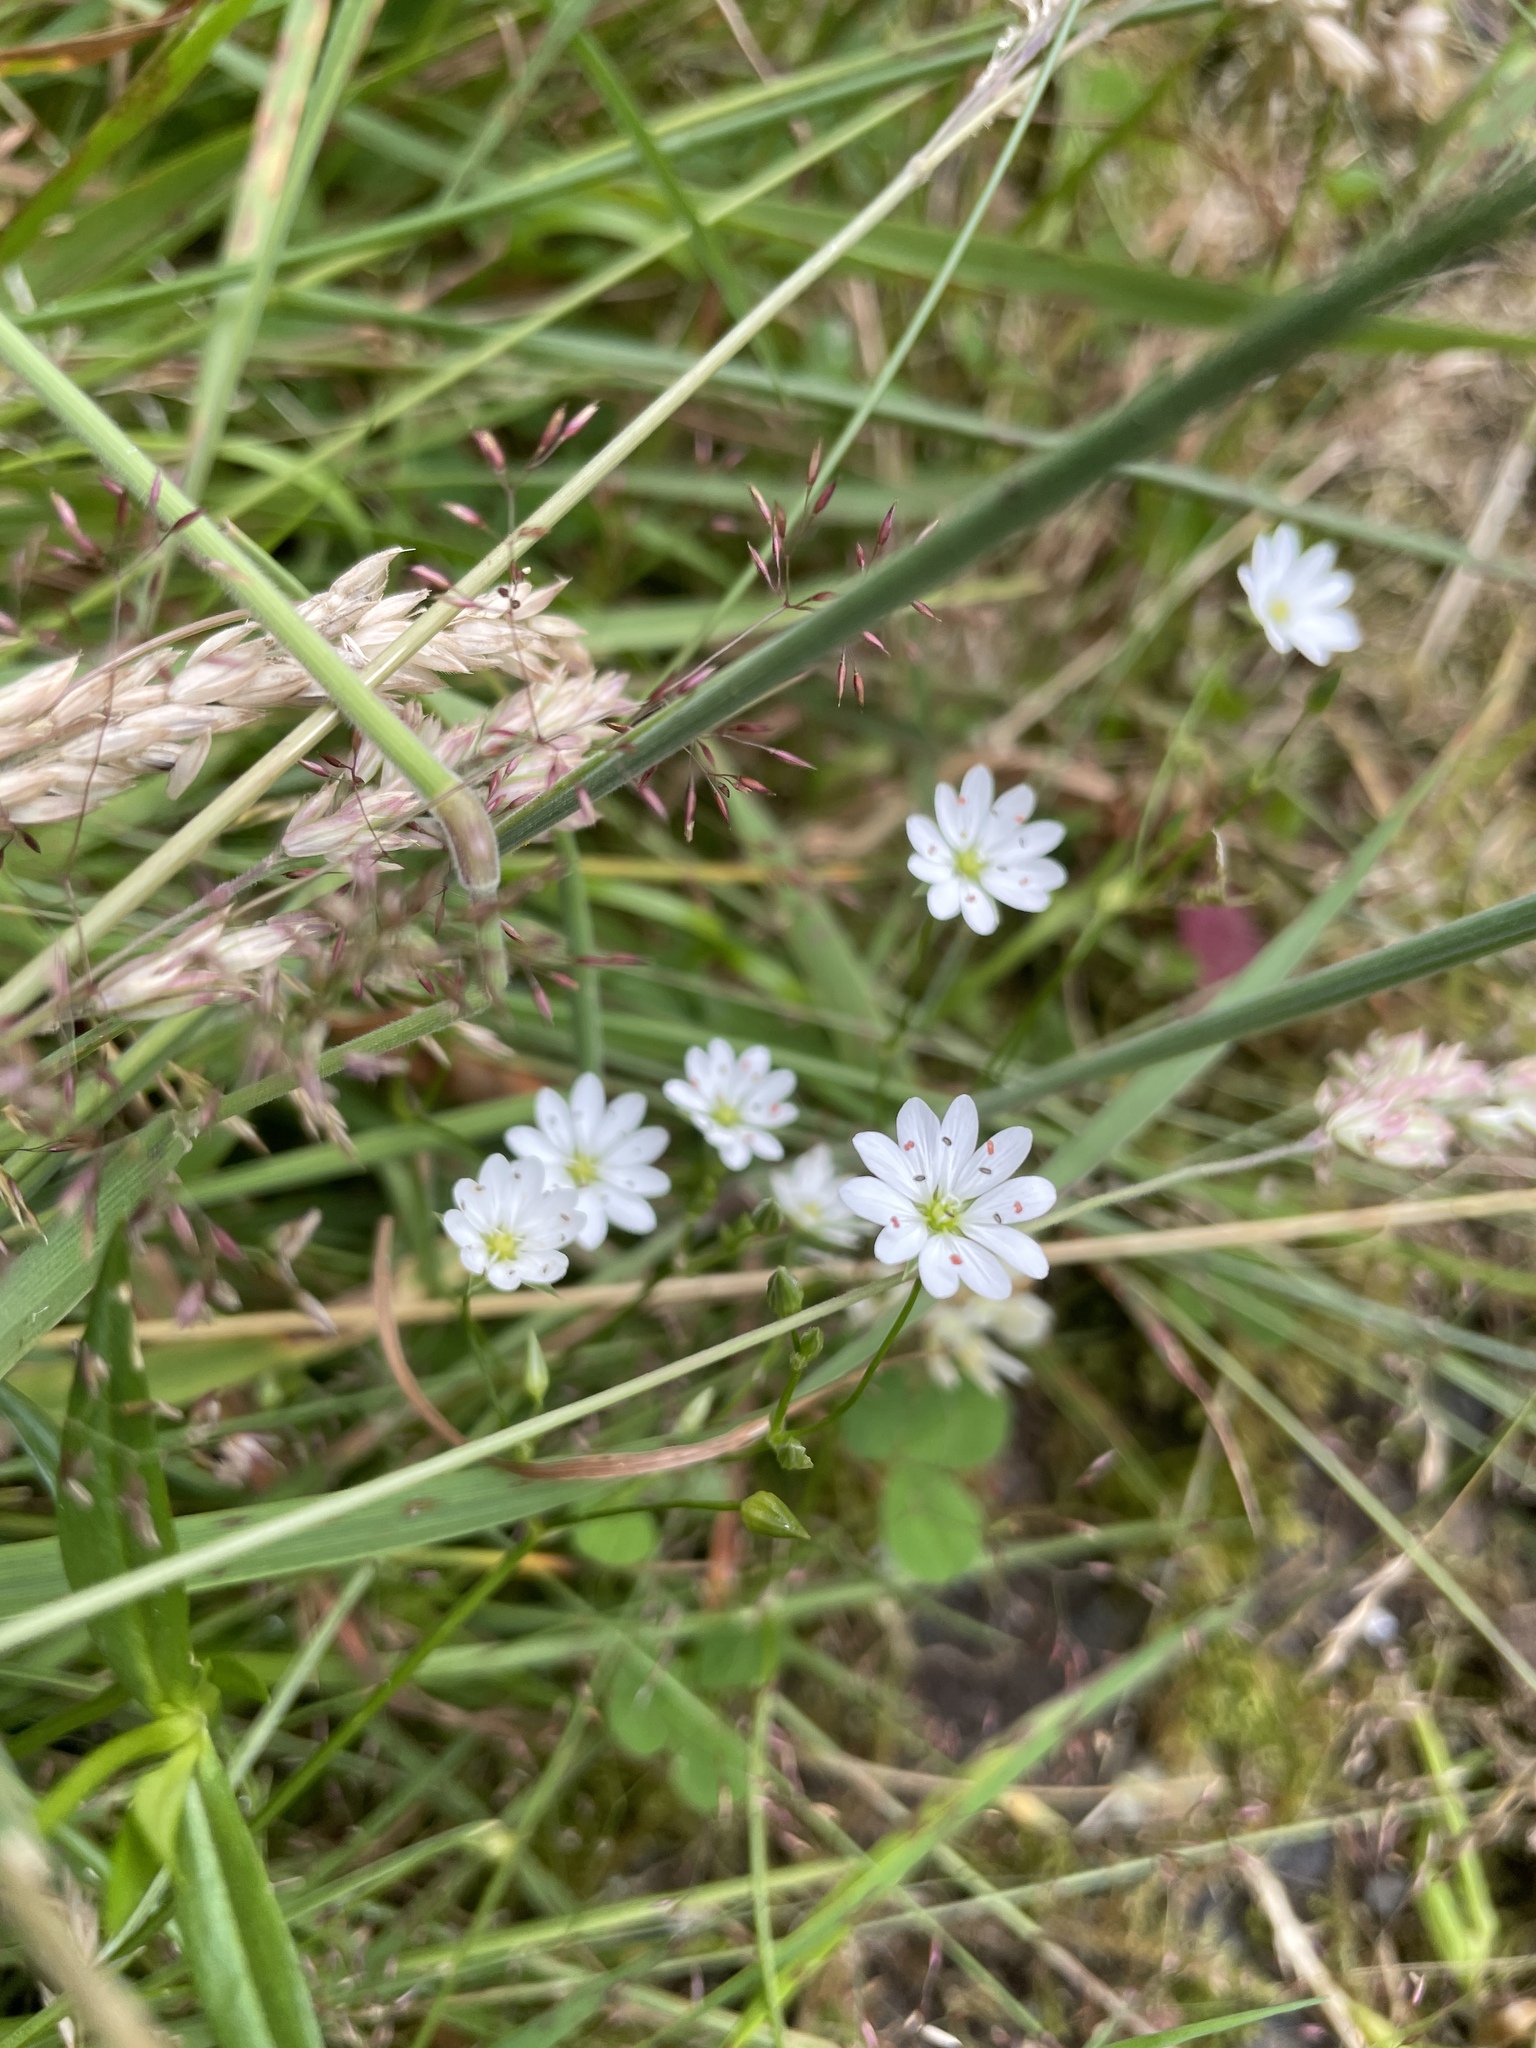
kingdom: Plantae
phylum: Tracheophyta
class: Magnoliopsida
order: Caryophyllales
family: Caryophyllaceae
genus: Stellaria
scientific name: Stellaria graminea
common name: Grass-like starwort
